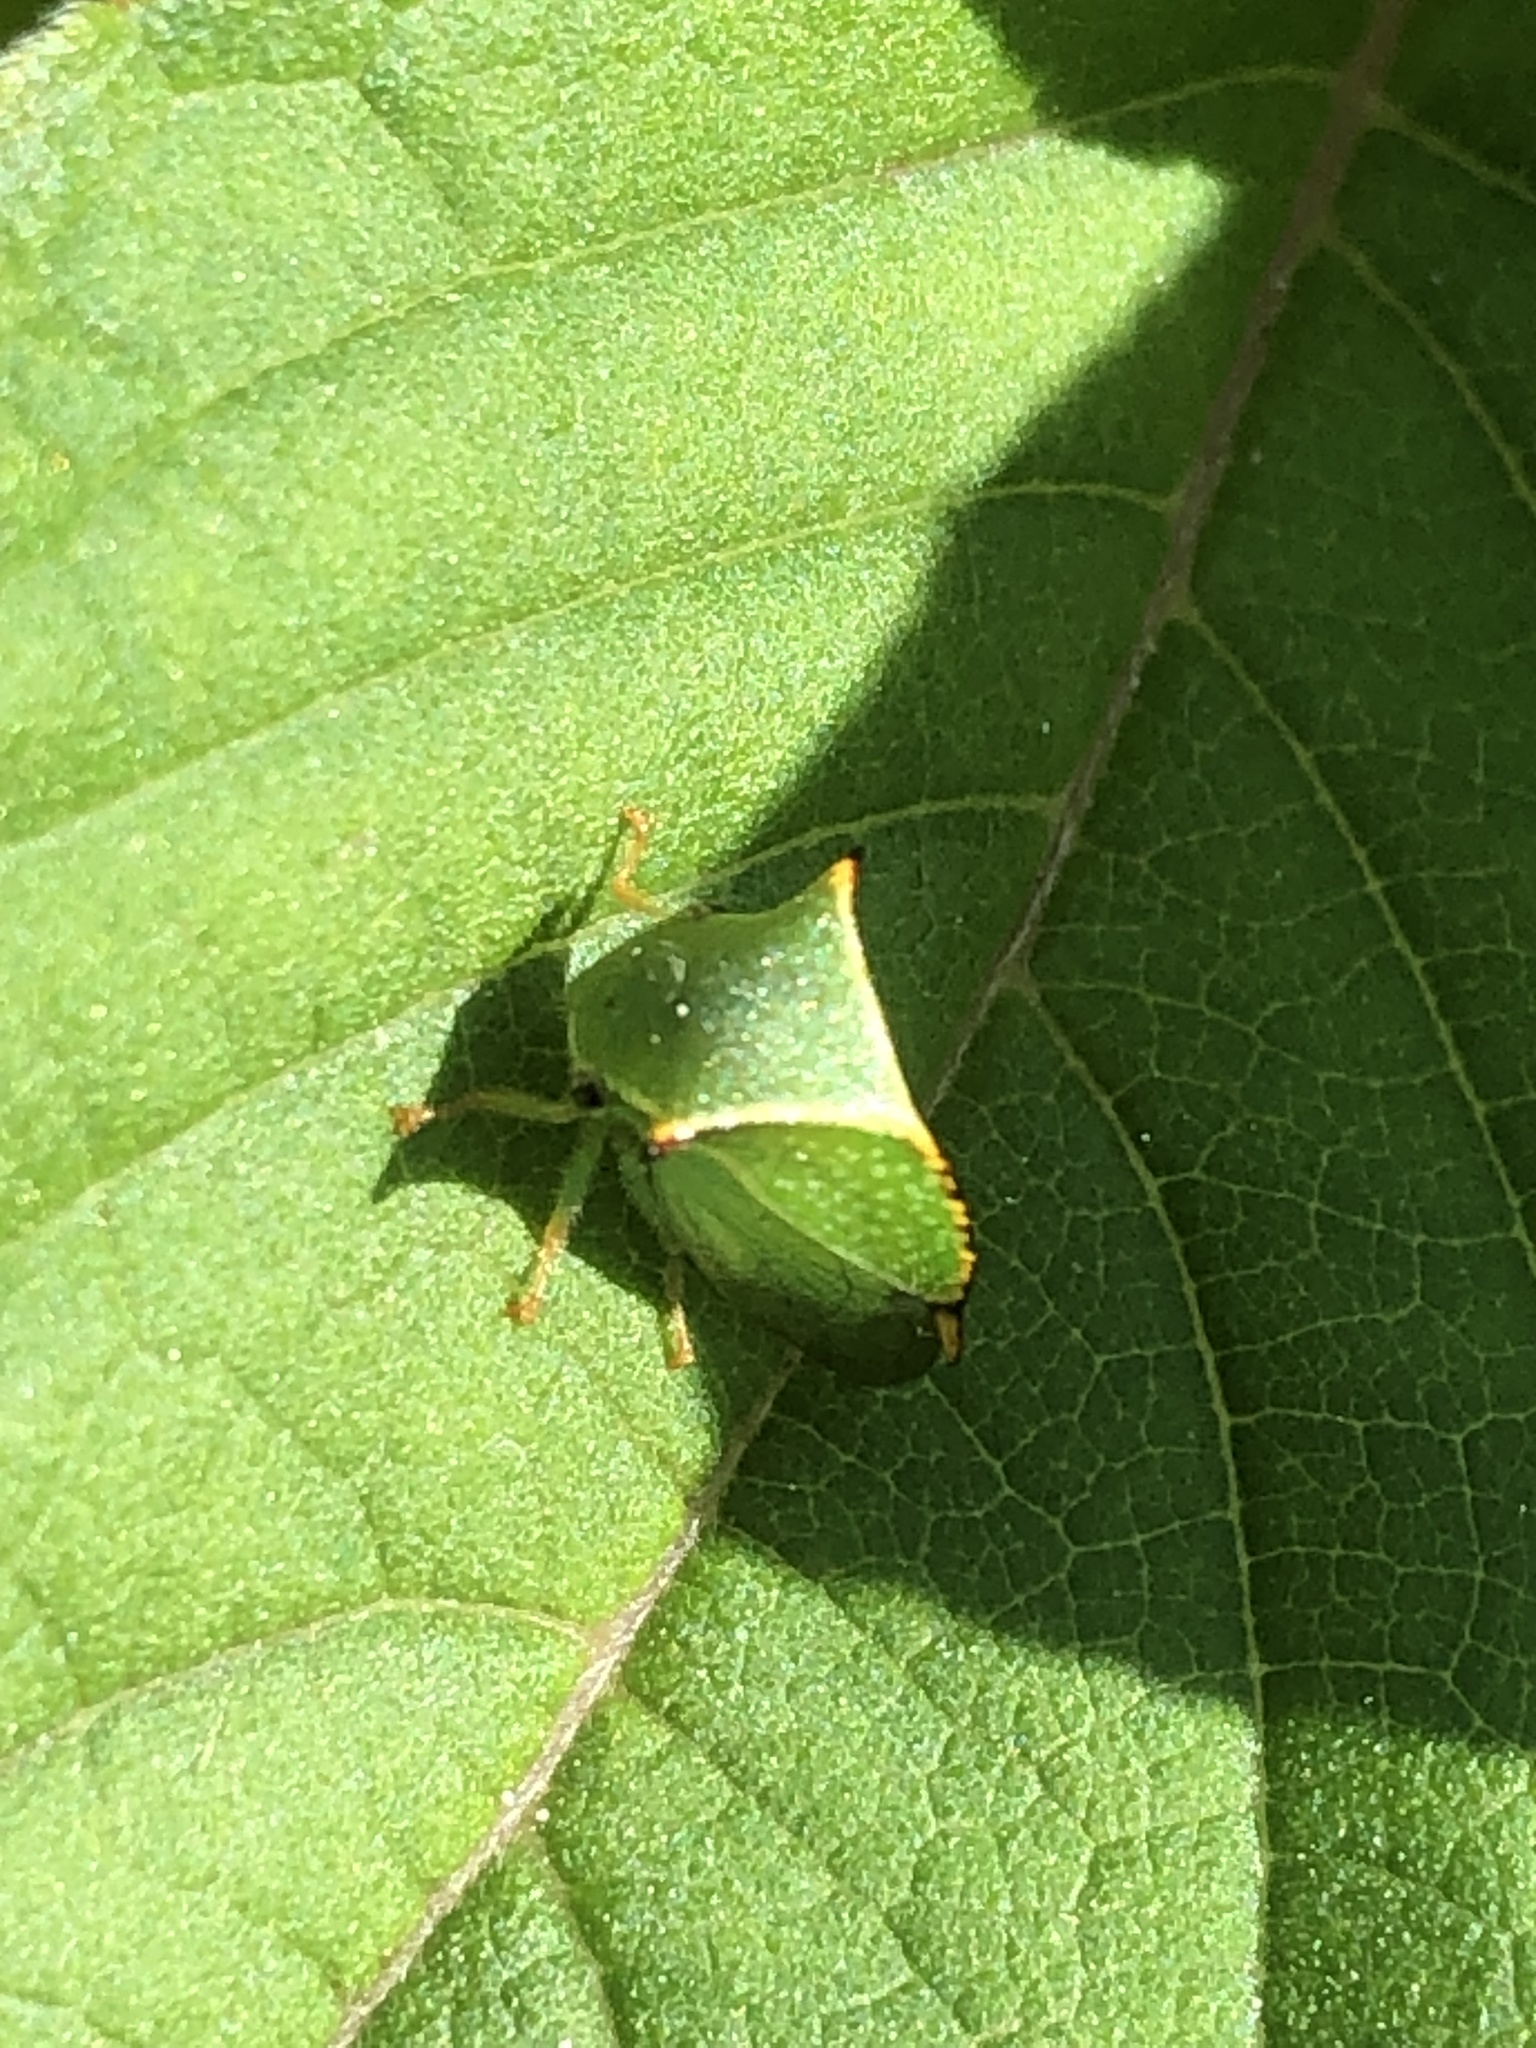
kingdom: Animalia
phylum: Arthropoda
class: Insecta
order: Hemiptera
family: Membracidae
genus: Stictocephala
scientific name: Stictocephala bisonia
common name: American buffalo treehopper
